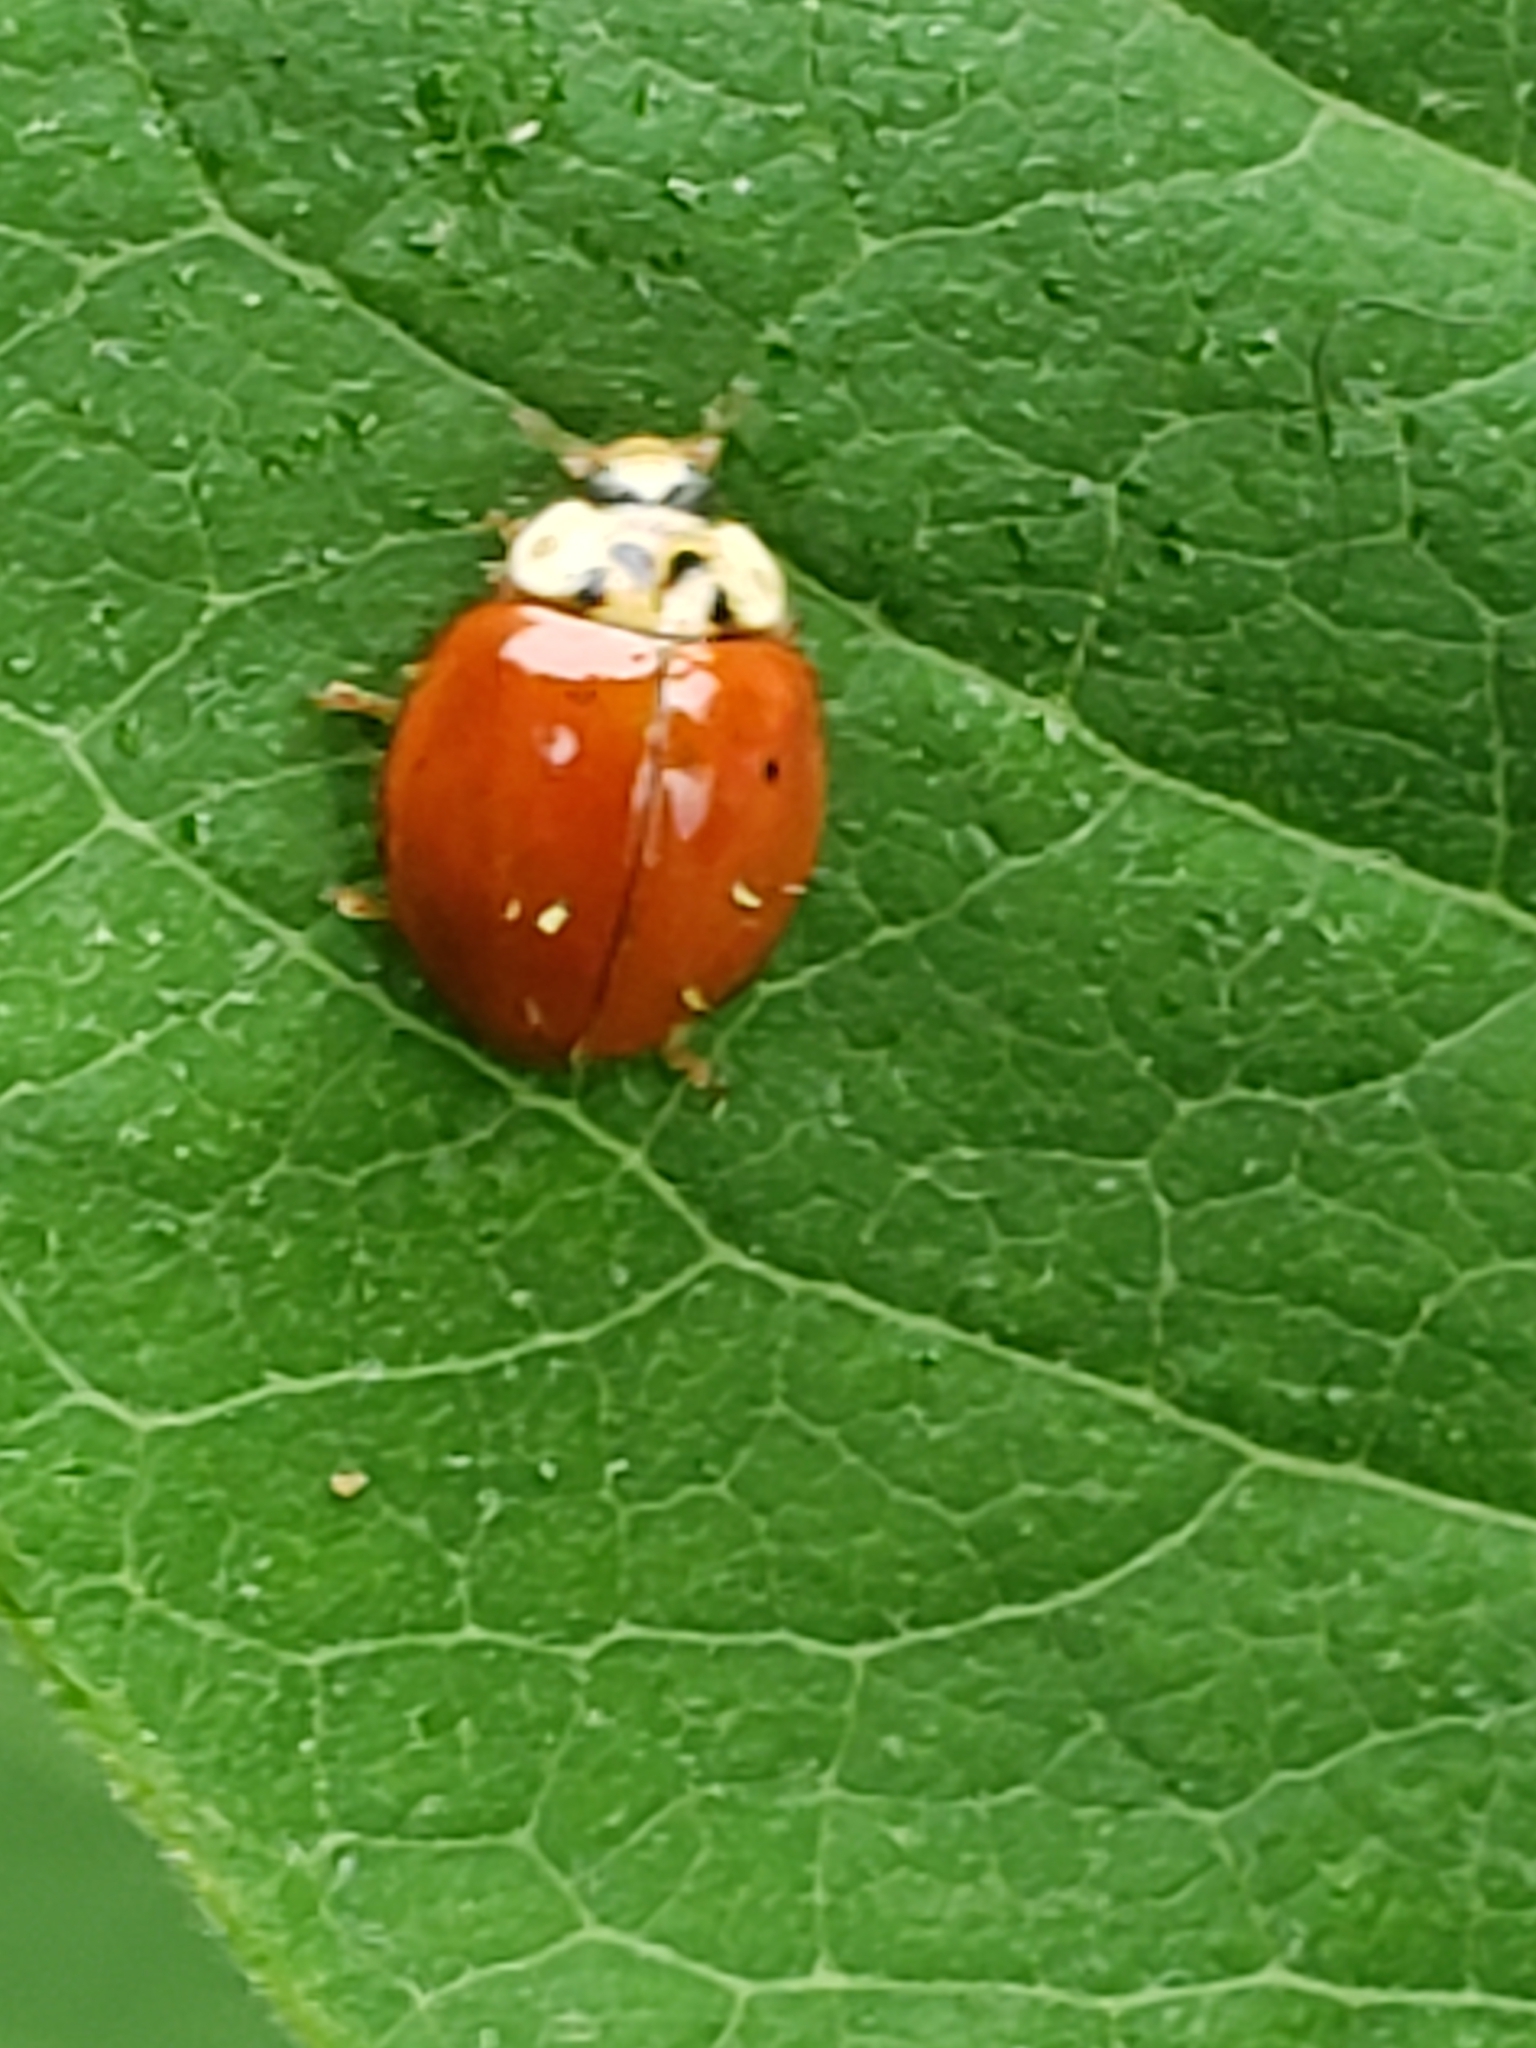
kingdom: Animalia
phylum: Arthropoda
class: Insecta
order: Coleoptera
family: Coccinellidae
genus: Harmonia
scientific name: Harmonia axyridis
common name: Harlequin ladybird
